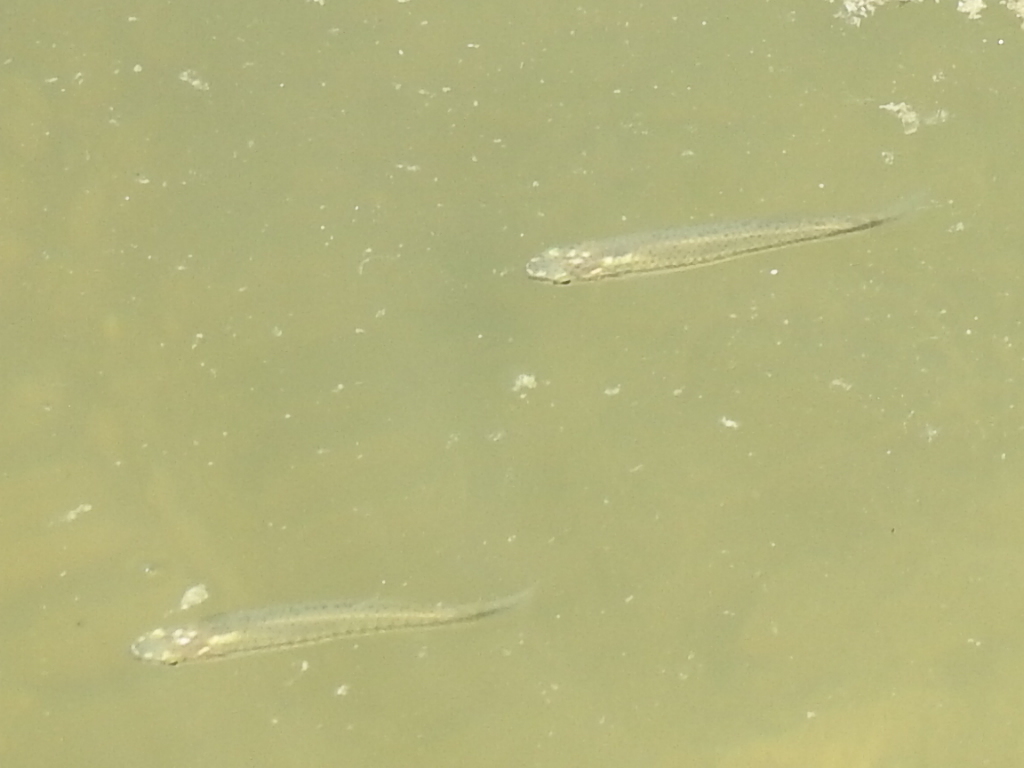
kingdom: Animalia
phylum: Chordata
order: Cyprinodontiformes
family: Fundulidae
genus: Fundulus
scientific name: Fundulus notatus
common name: Blackstripe topminnow
